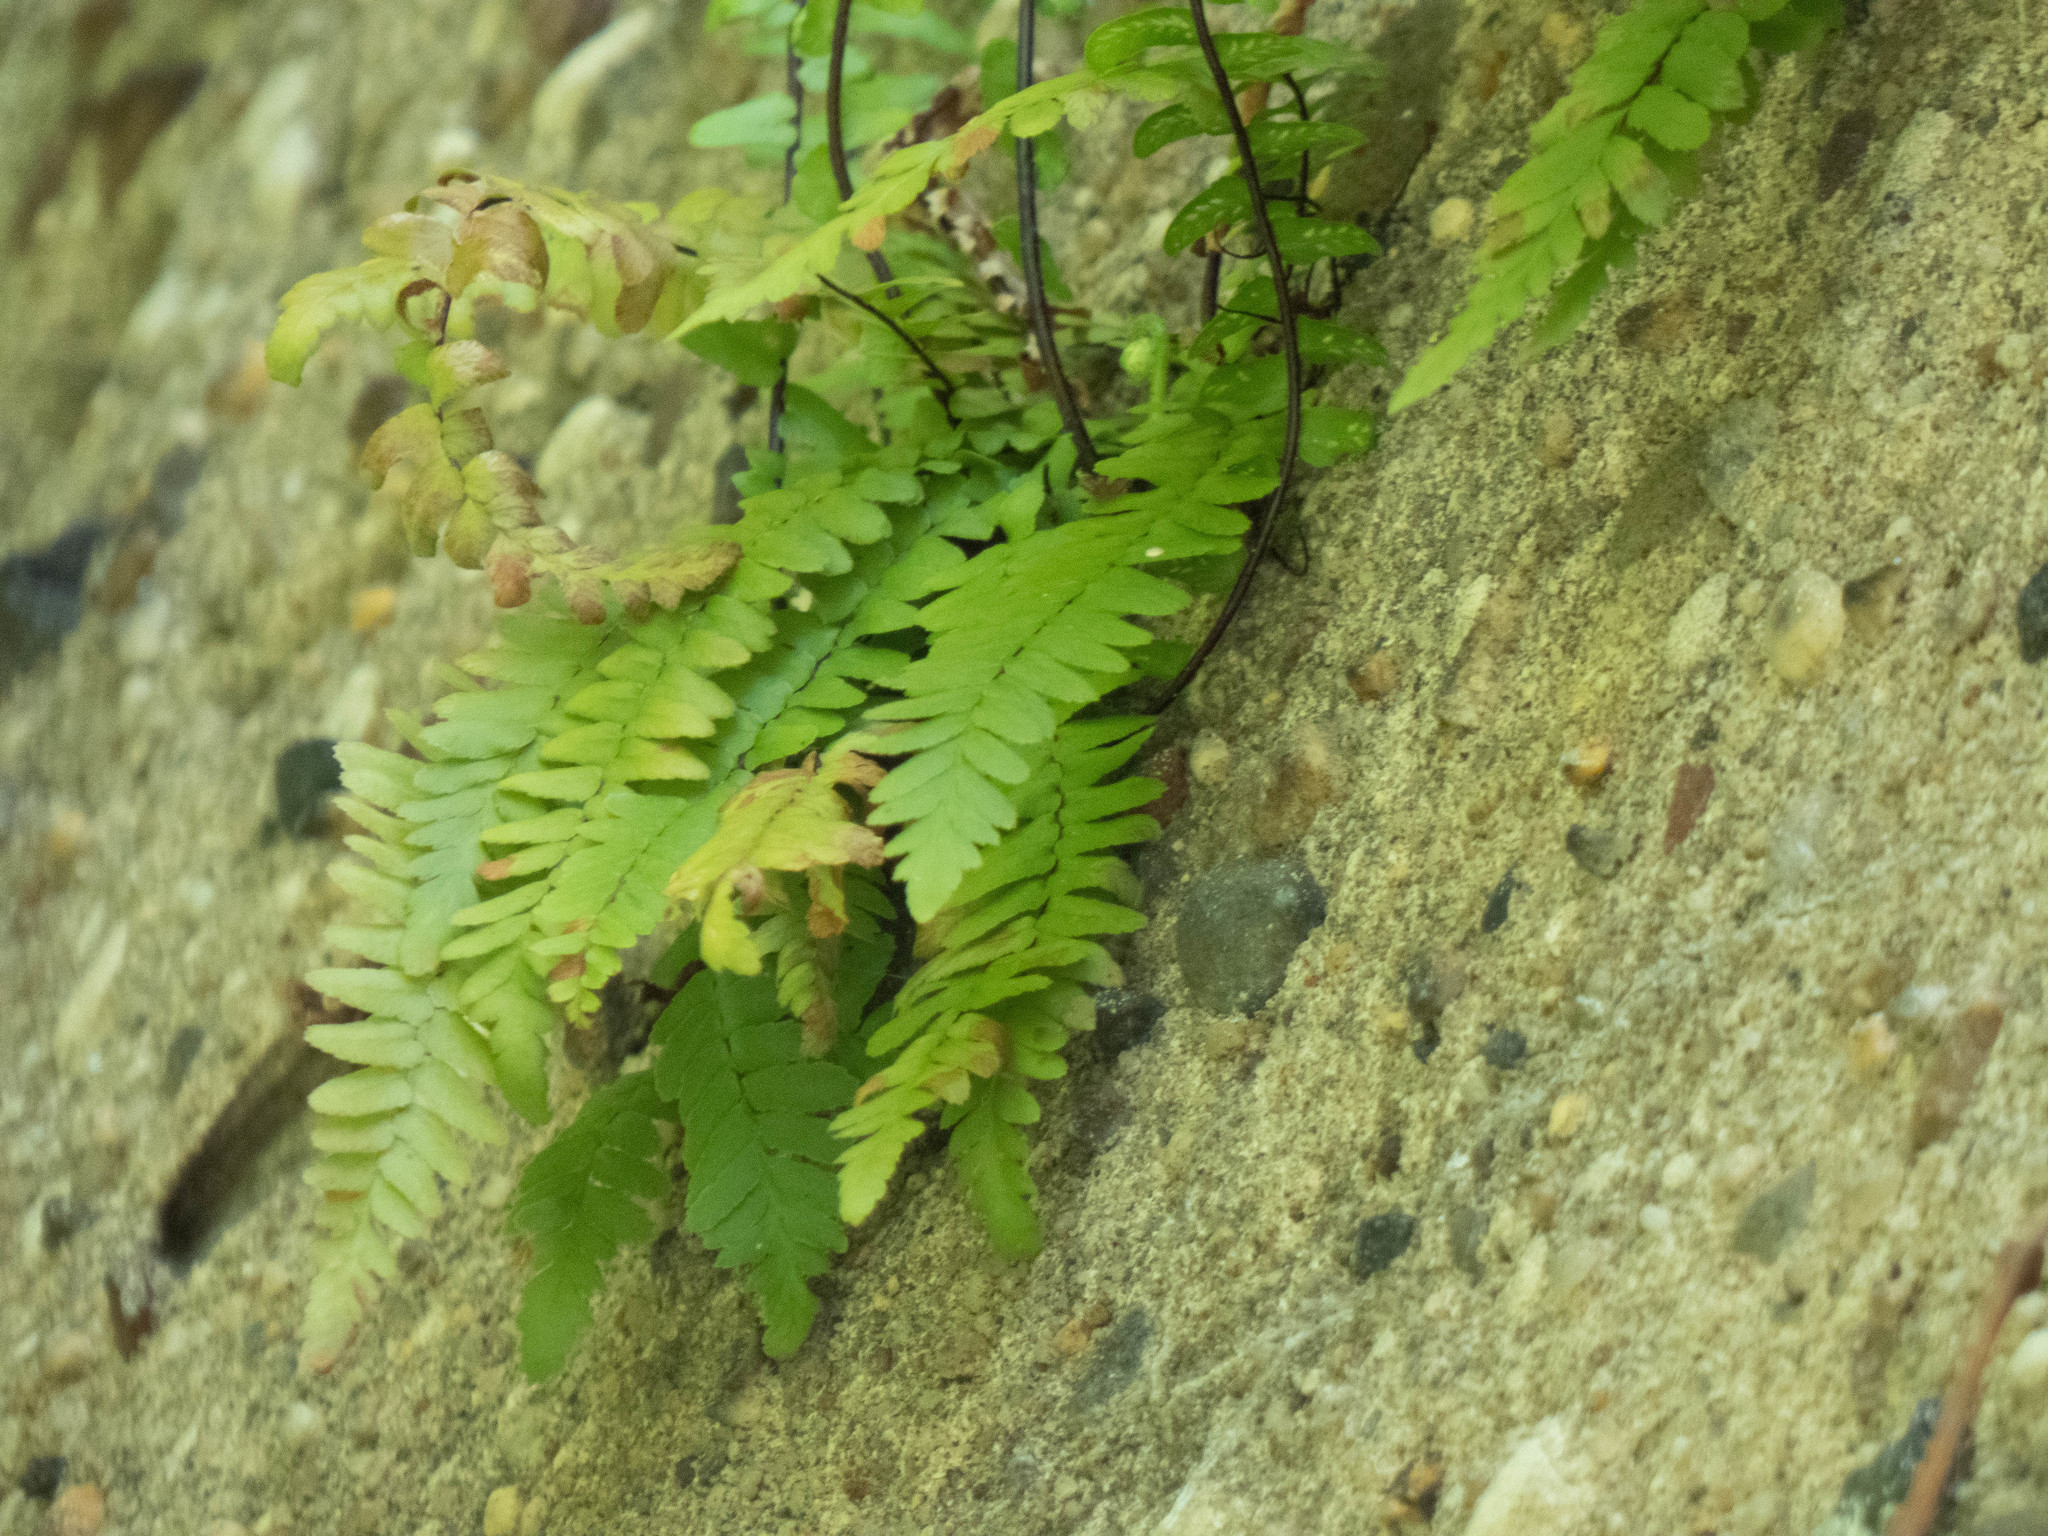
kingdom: Plantae
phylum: Tracheophyta
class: Polypodiopsida
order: Polypodiales
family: Aspleniaceae
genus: Asplenium
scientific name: Asplenium platyneuron
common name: Ebony spleenwort
